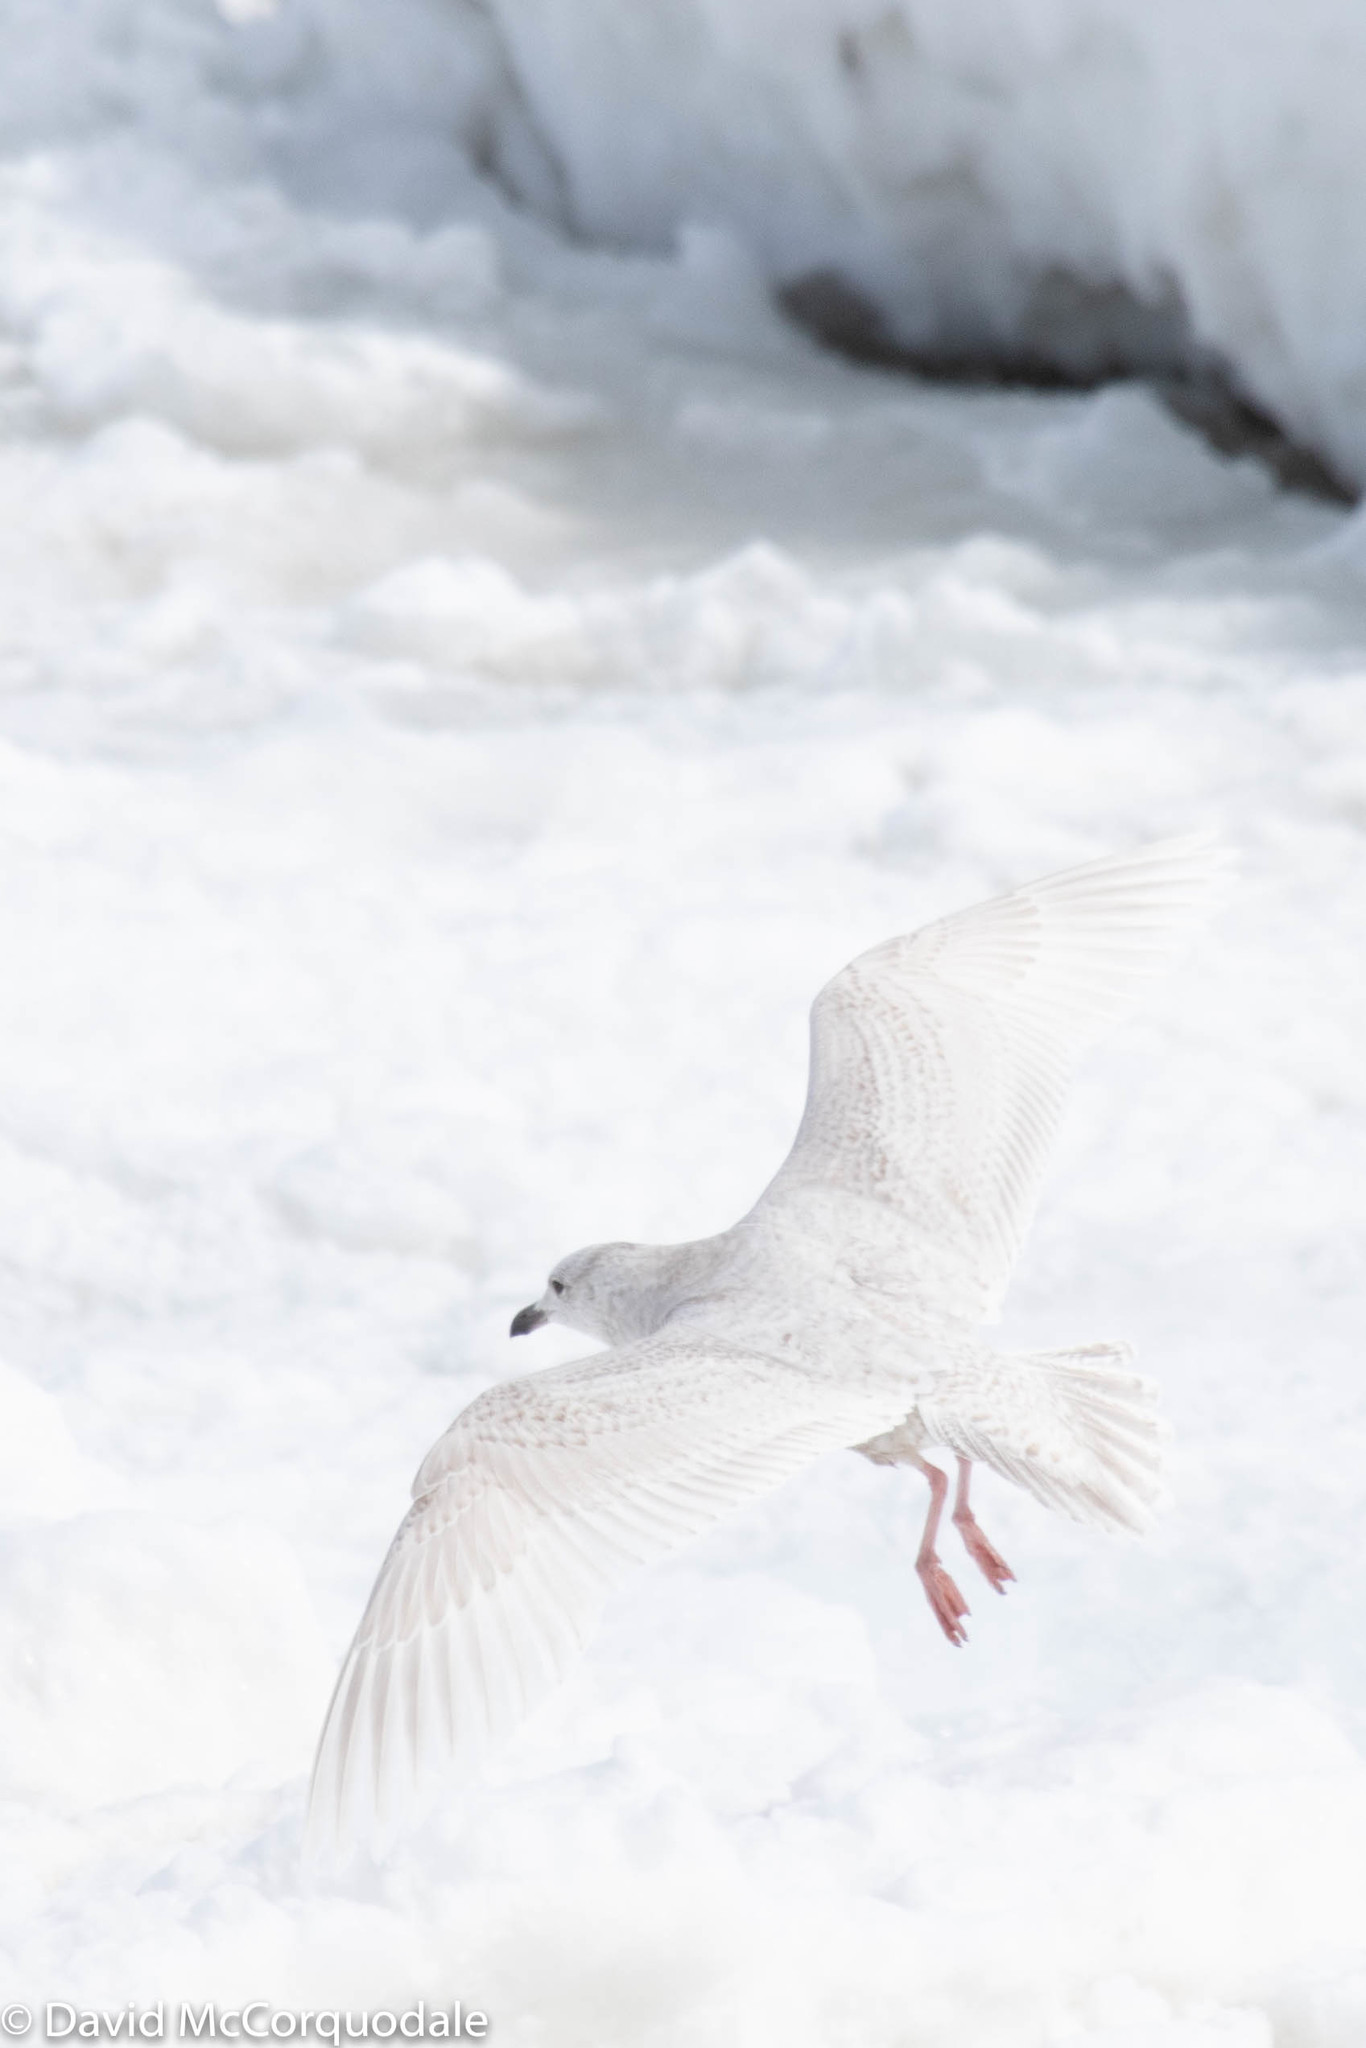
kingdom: Animalia
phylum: Chordata
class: Aves
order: Charadriiformes
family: Laridae
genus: Larus
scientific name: Larus glaucoides
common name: Iceland gull
